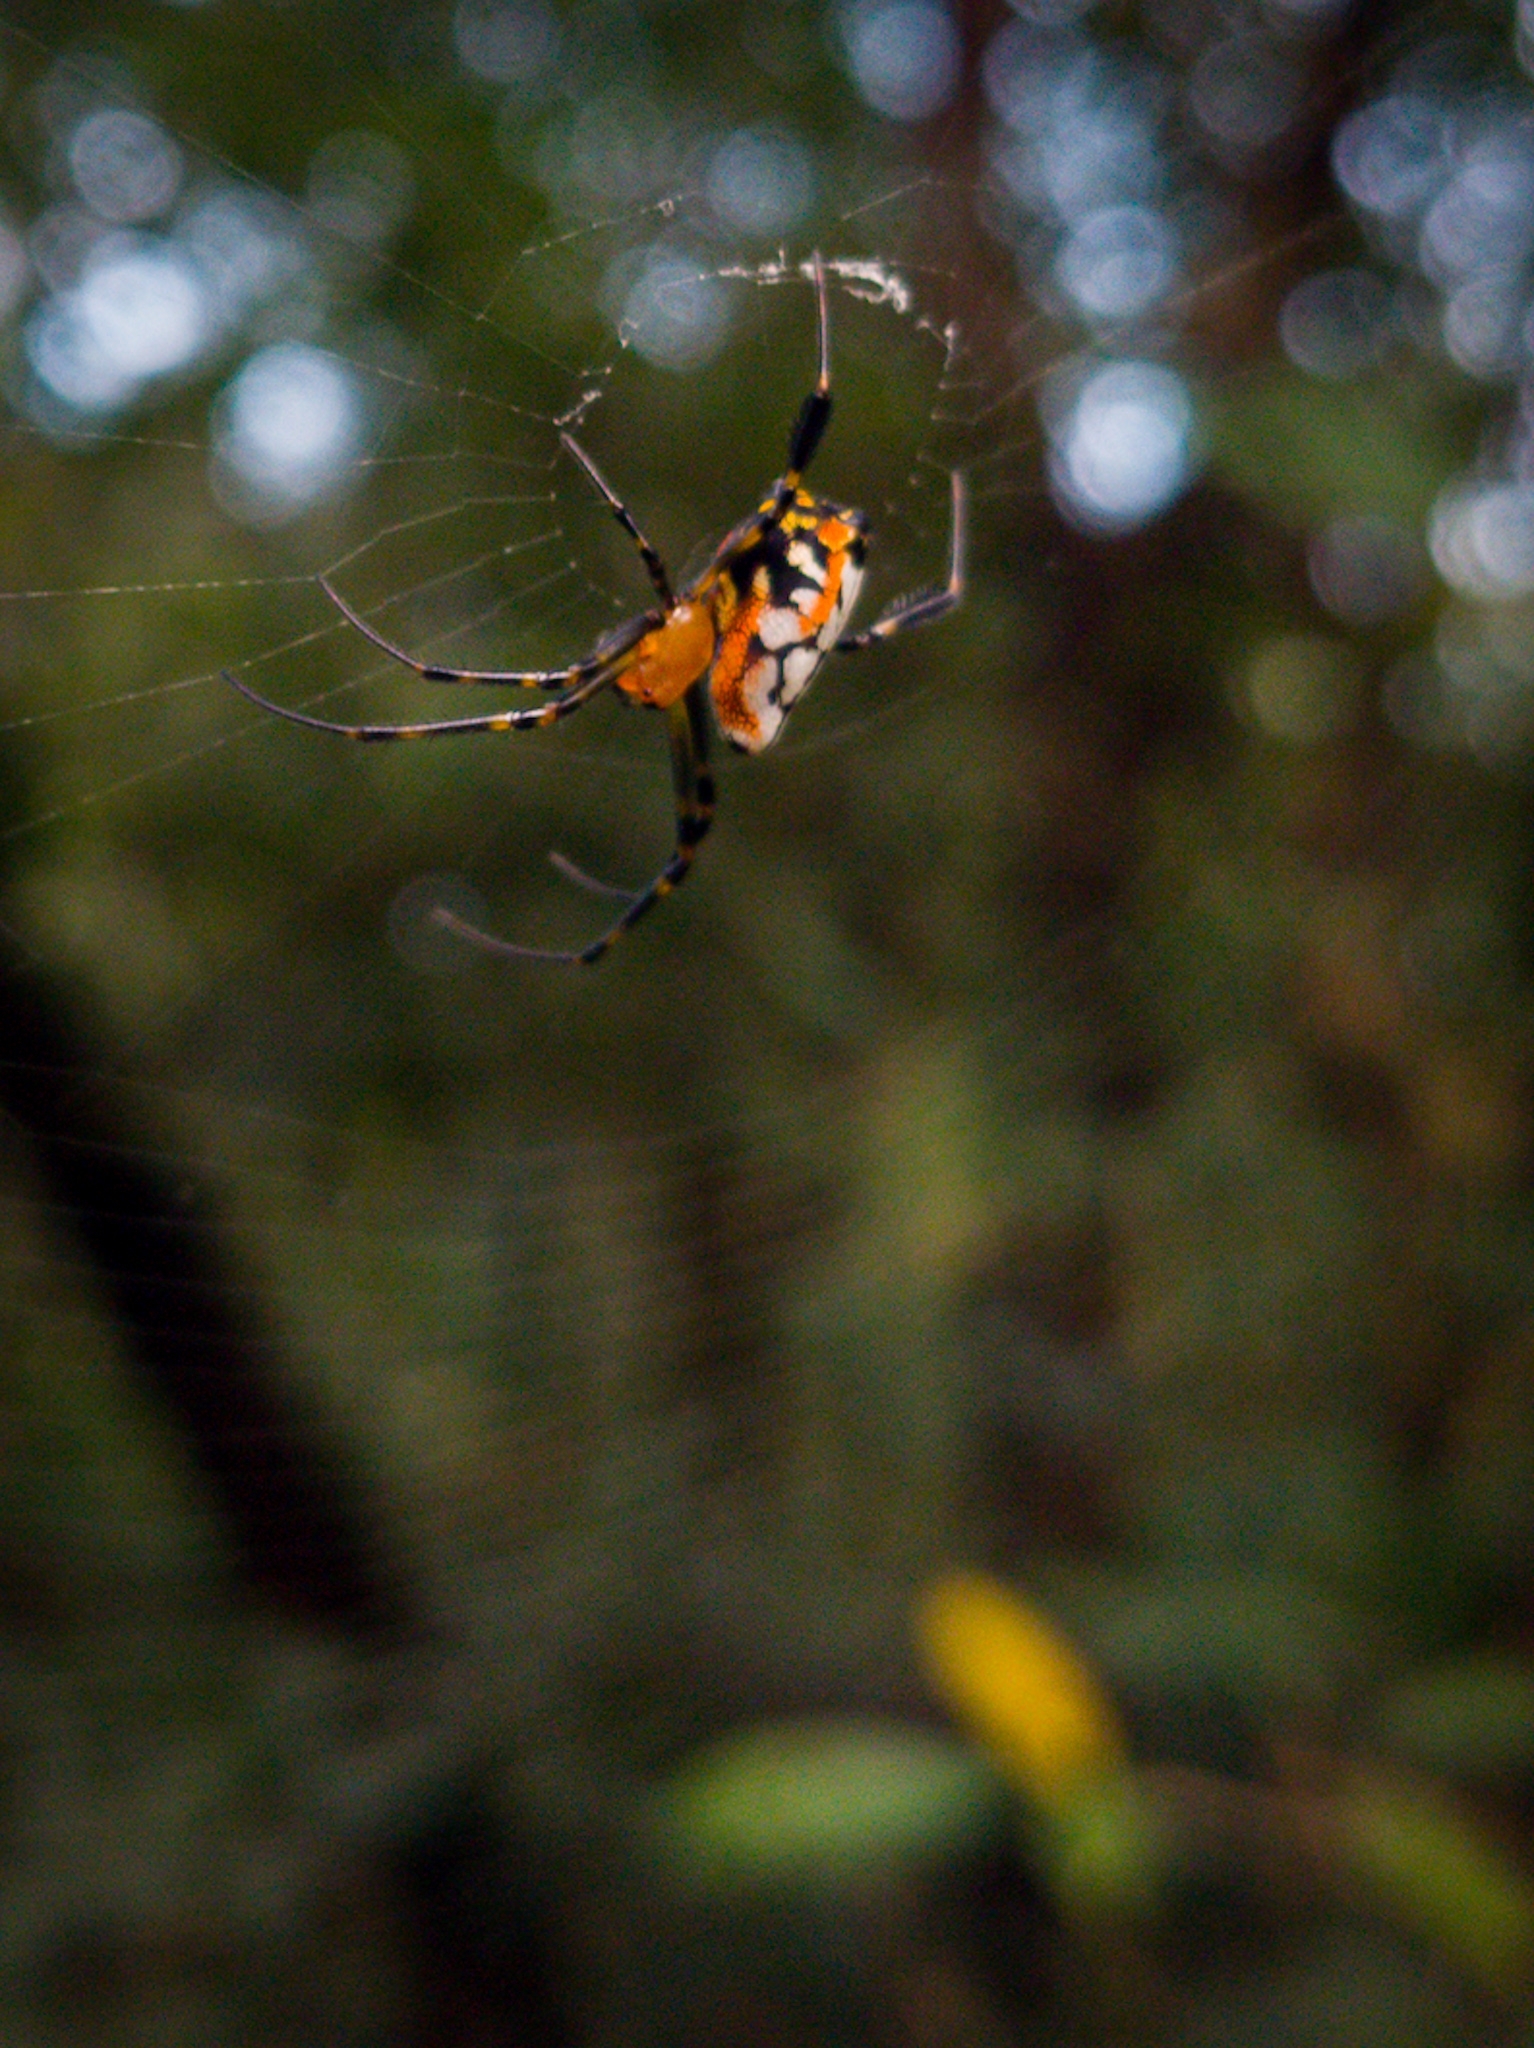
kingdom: Animalia
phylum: Arthropoda
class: Arachnida
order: Araneae
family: Tetragnathidae
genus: Leucauge
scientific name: Leucauge fastigata
